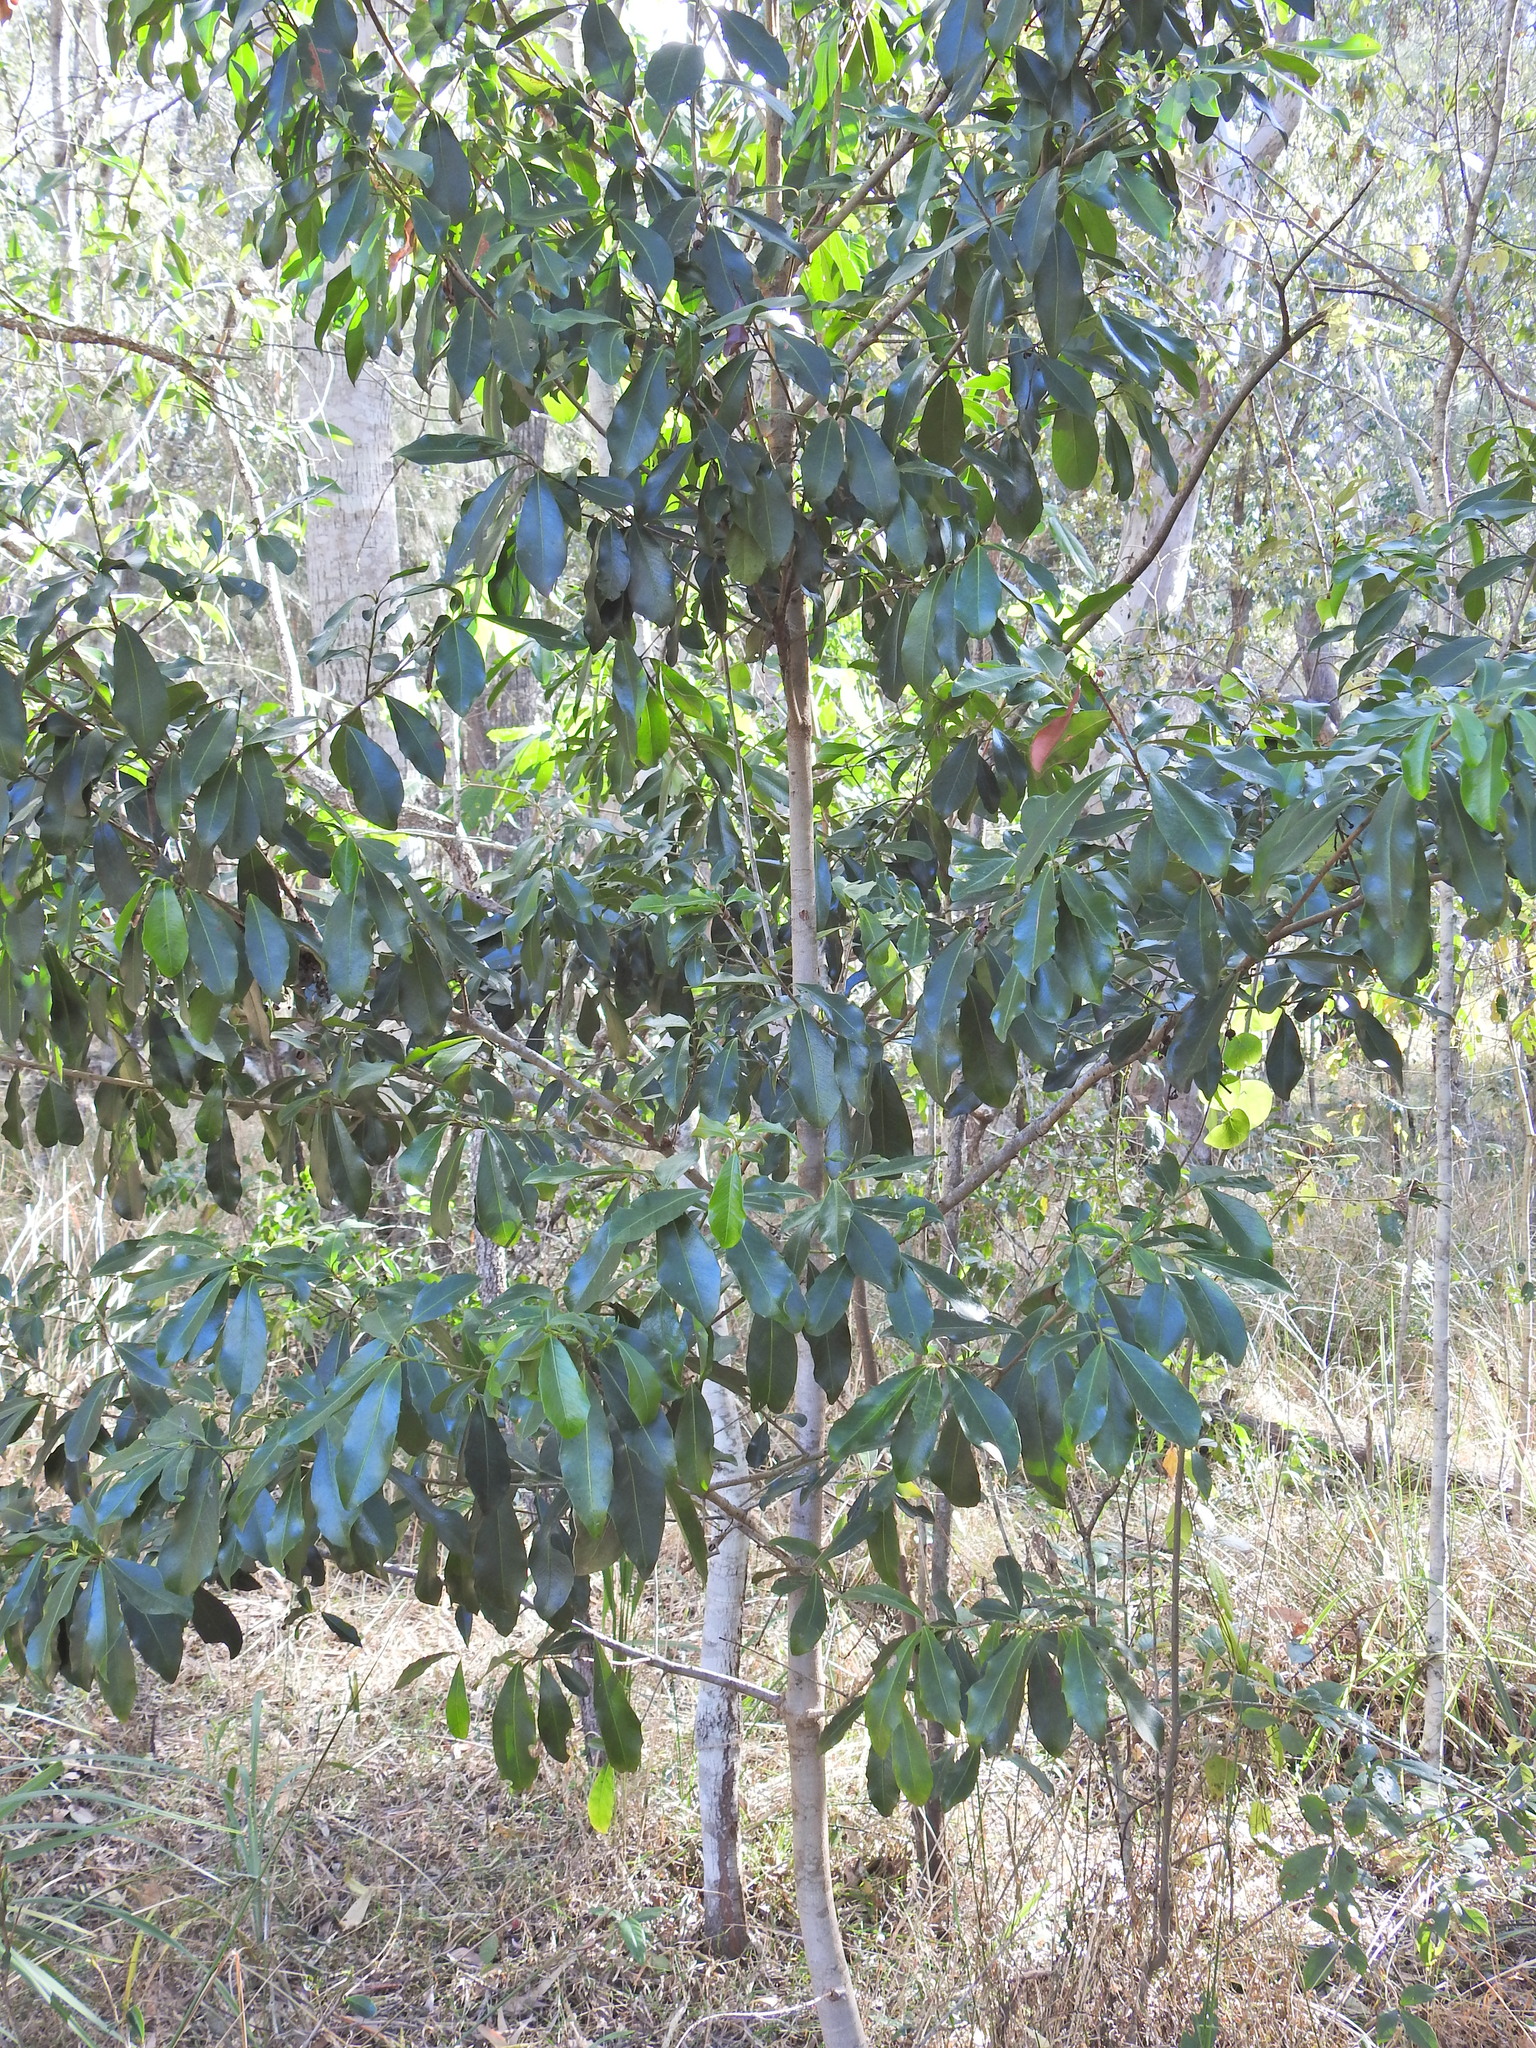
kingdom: Plantae
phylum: Tracheophyta
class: Magnoliopsida
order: Ericales
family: Primulaceae
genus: Myrsine
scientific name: Myrsine variabilis
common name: Brush muttonwood
